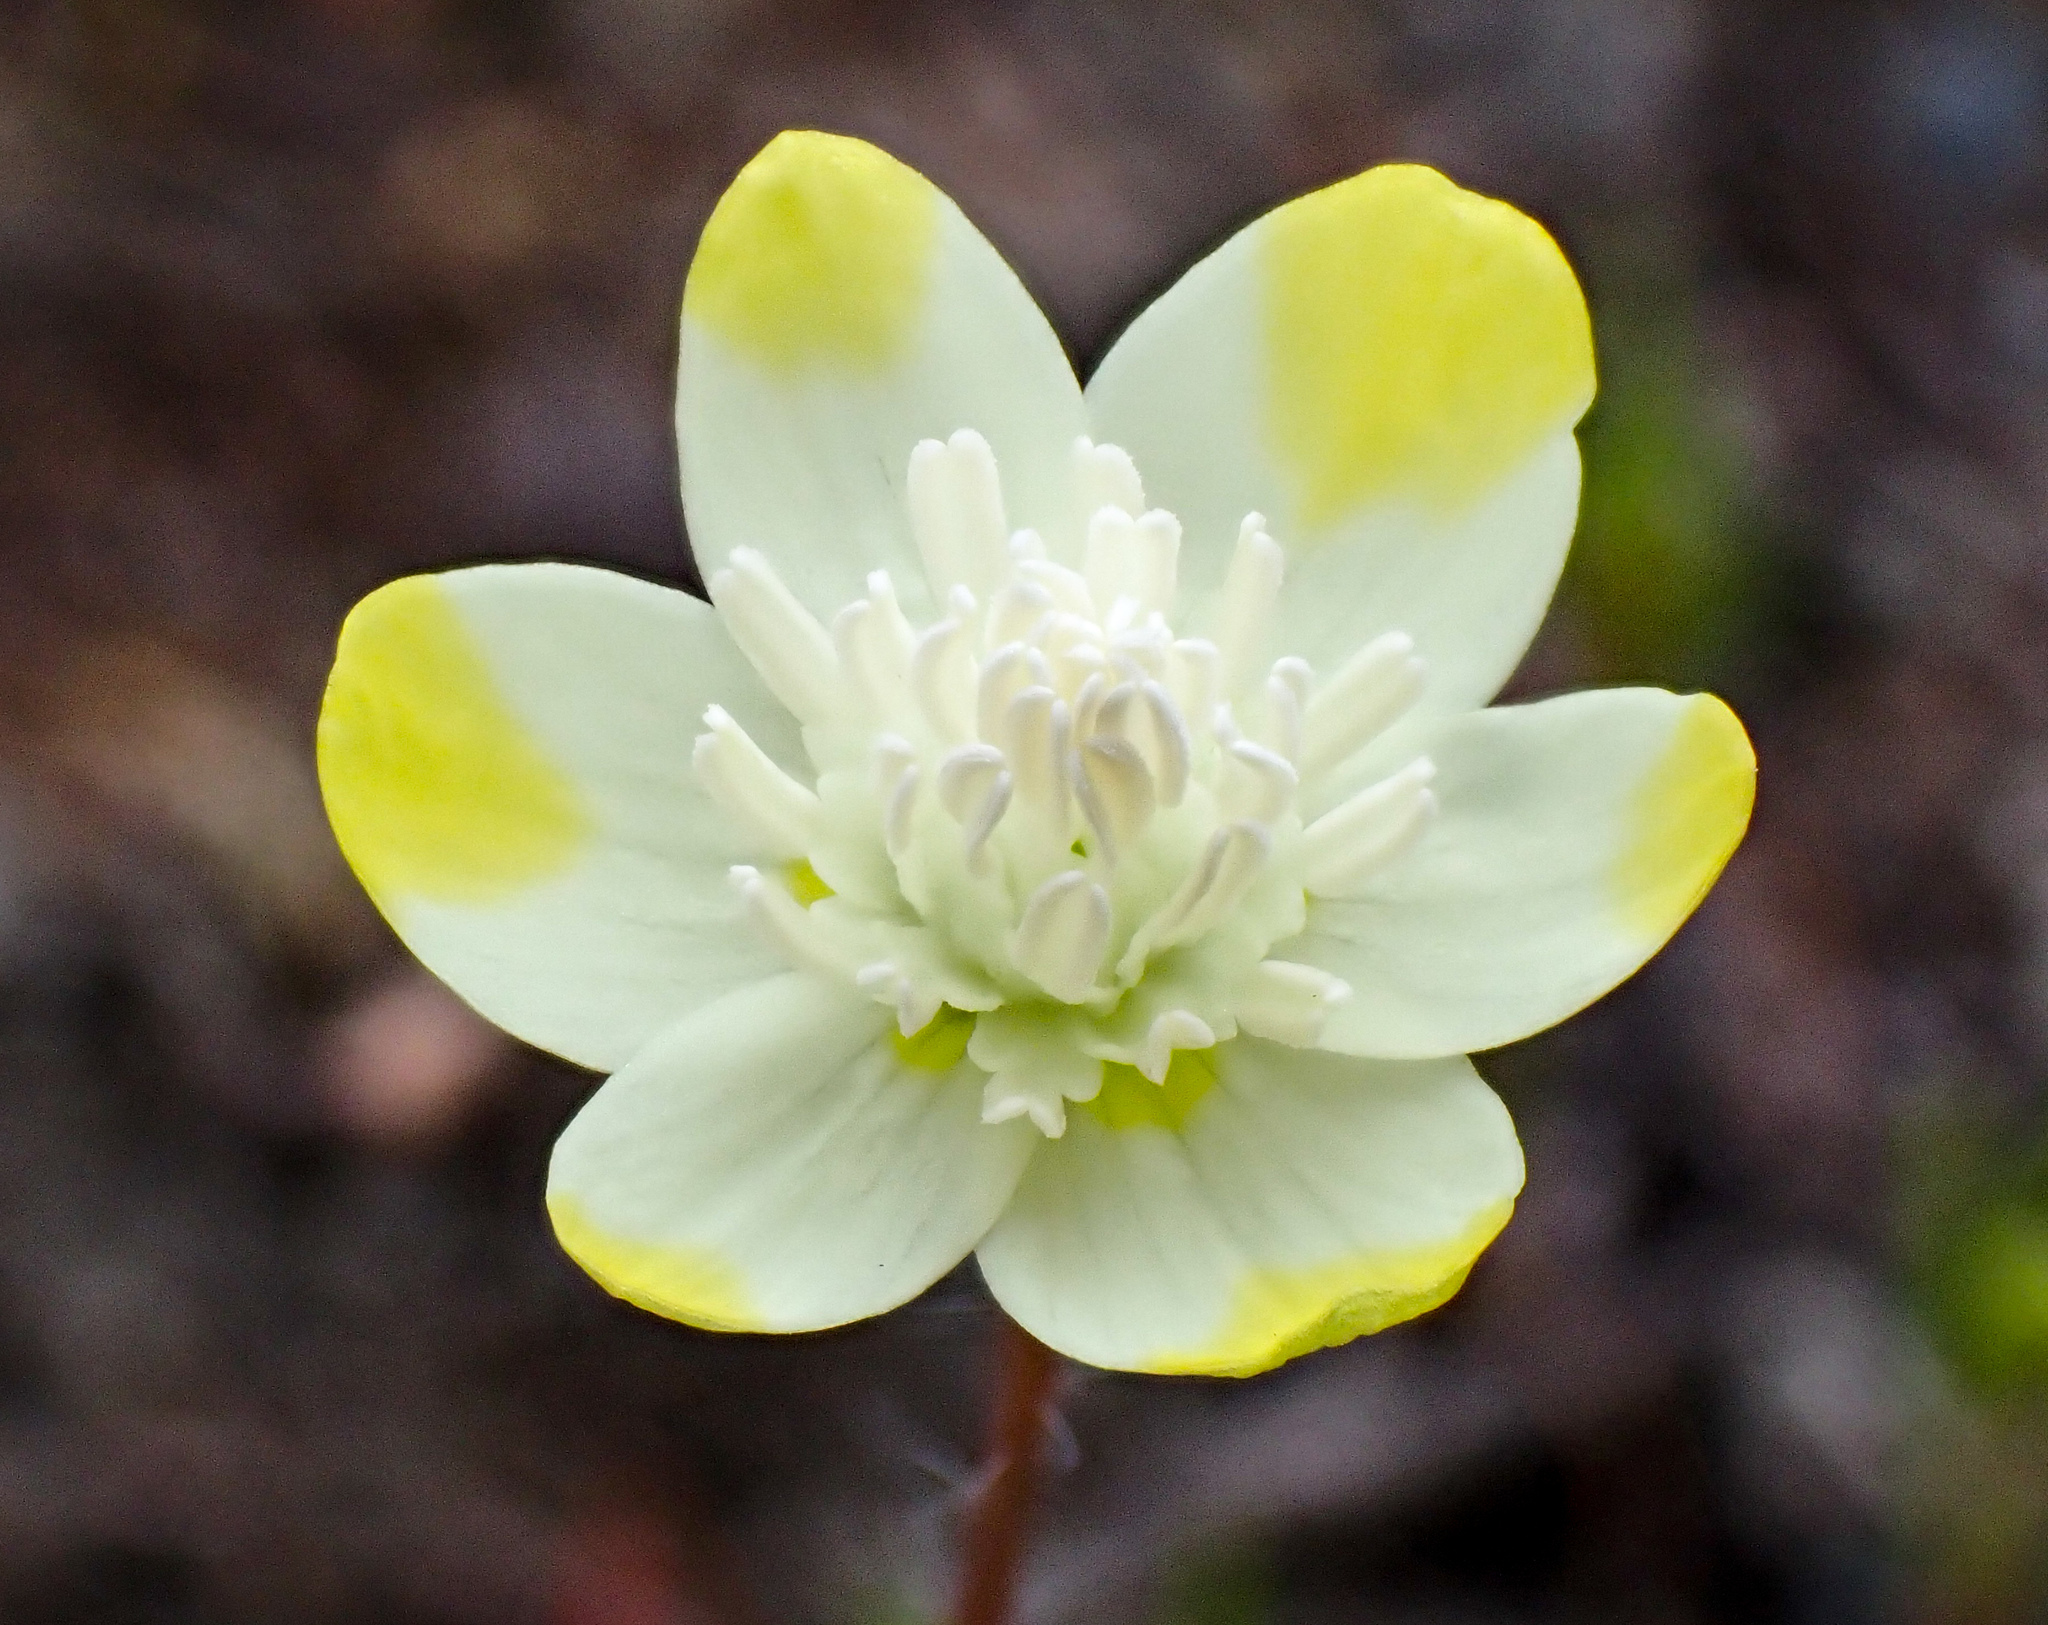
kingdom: Plantae
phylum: Tracheophyta
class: Magnoliopsida
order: Ranunculales
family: Papaveraceae
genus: Platystemon
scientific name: Platystemon californicus
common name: Cream-cups
